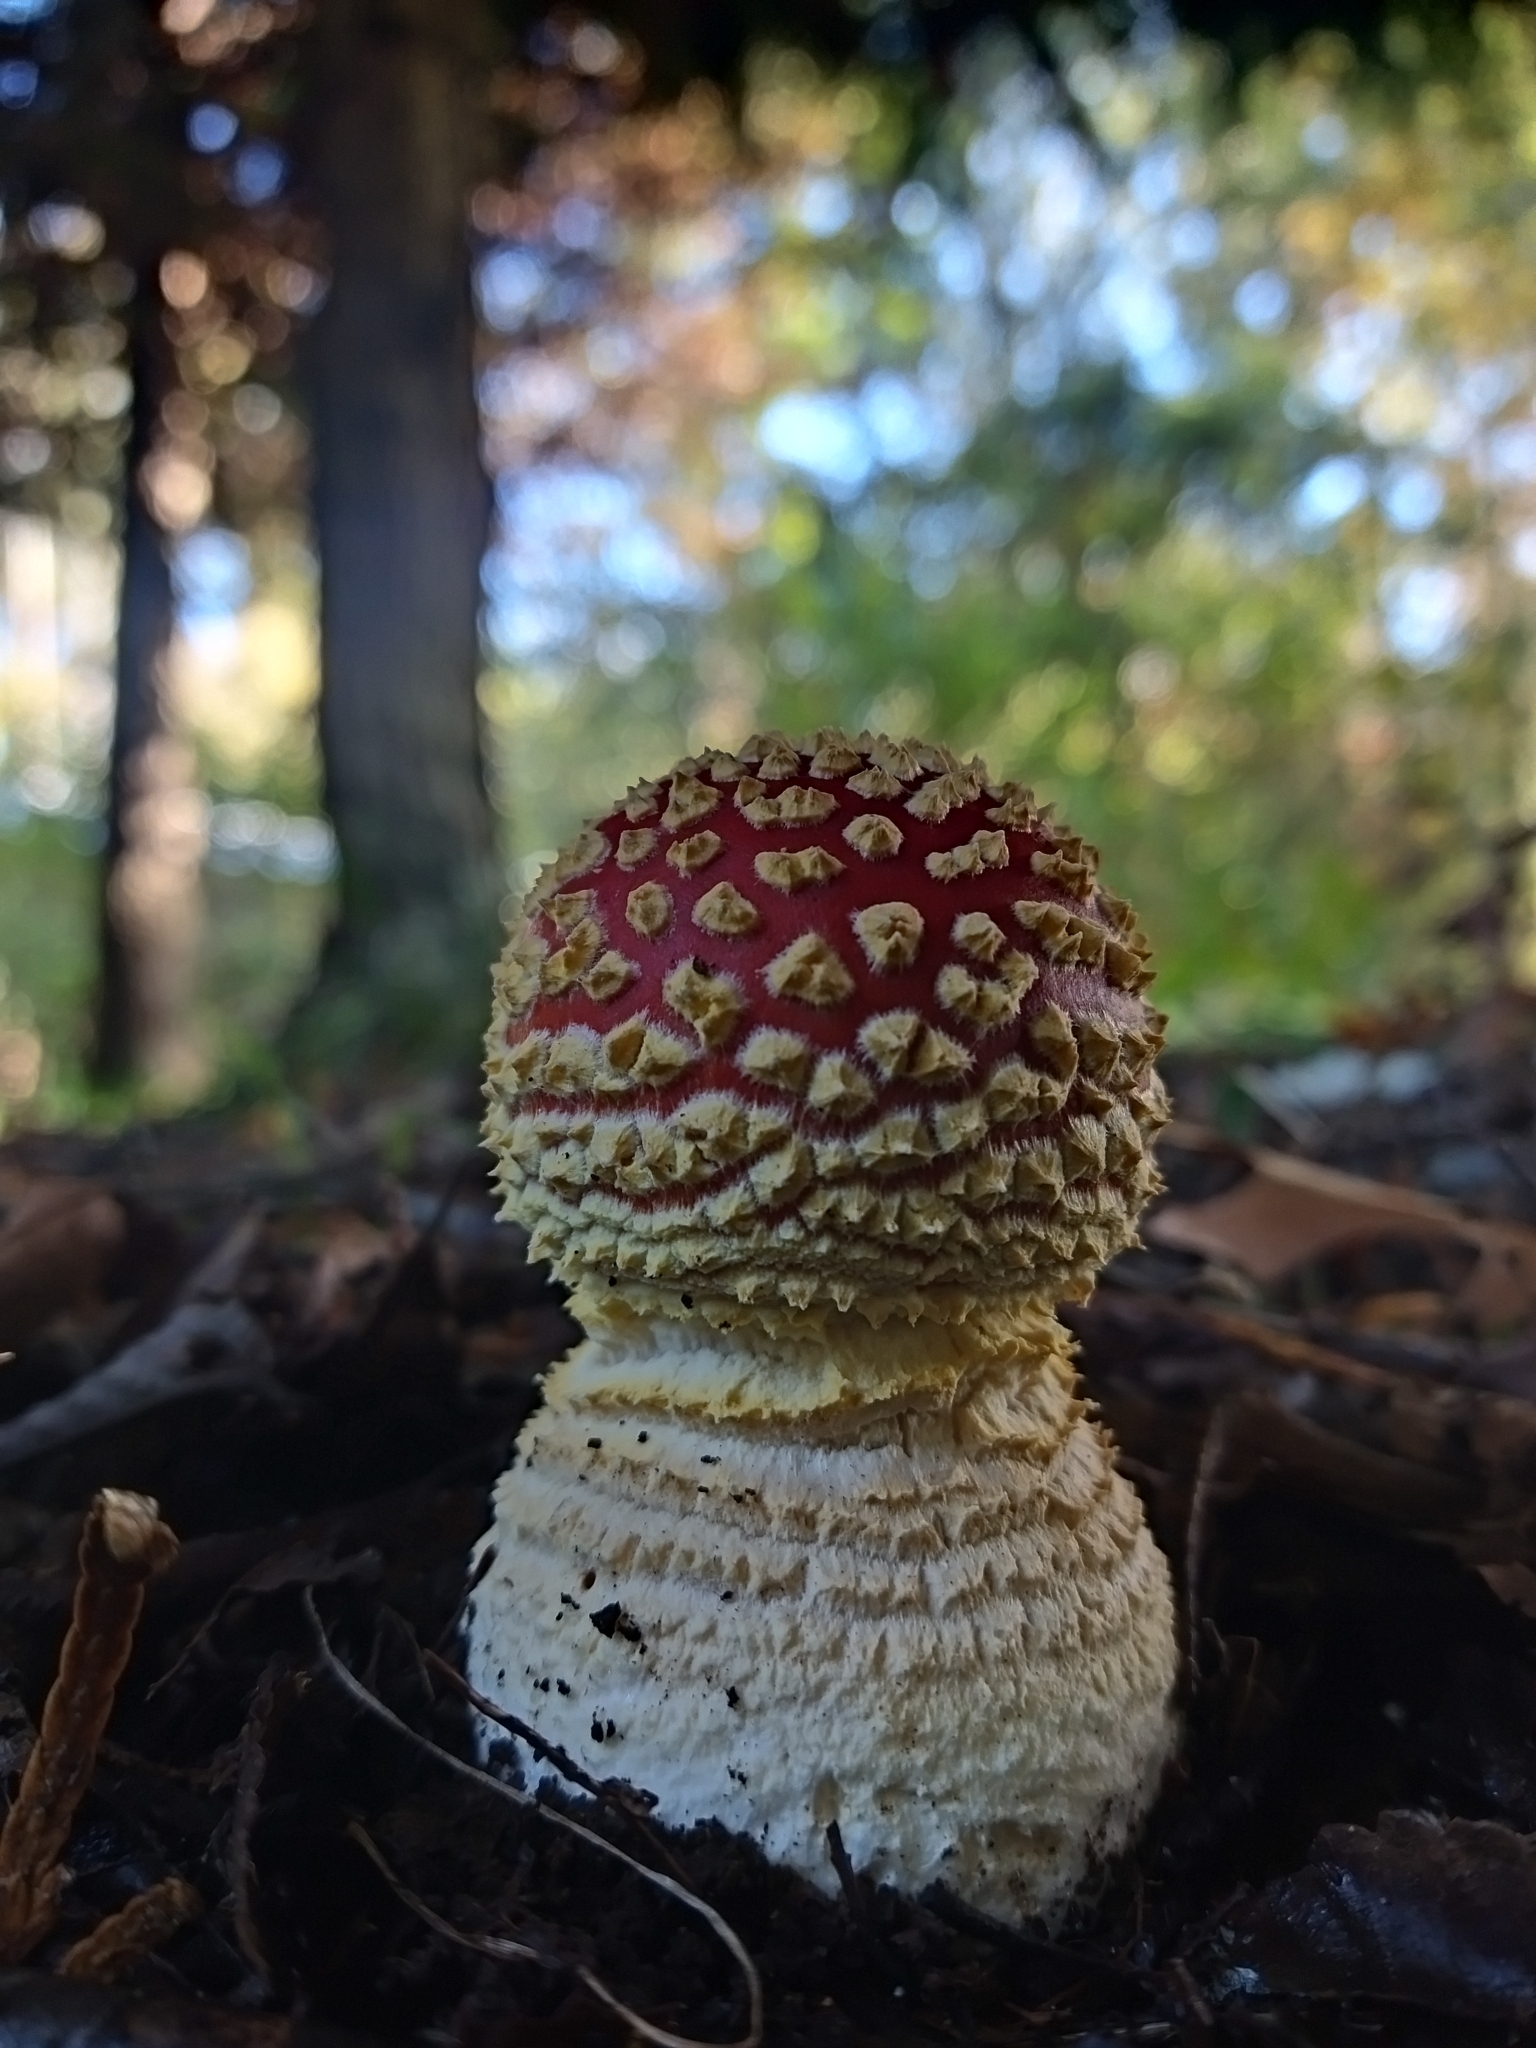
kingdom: Fungi
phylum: Basidiomycota
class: Agaricomycetes
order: Agaricales
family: Amanitaceae
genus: Amanita
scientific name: Amanita muscaria
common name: Fly agaric
